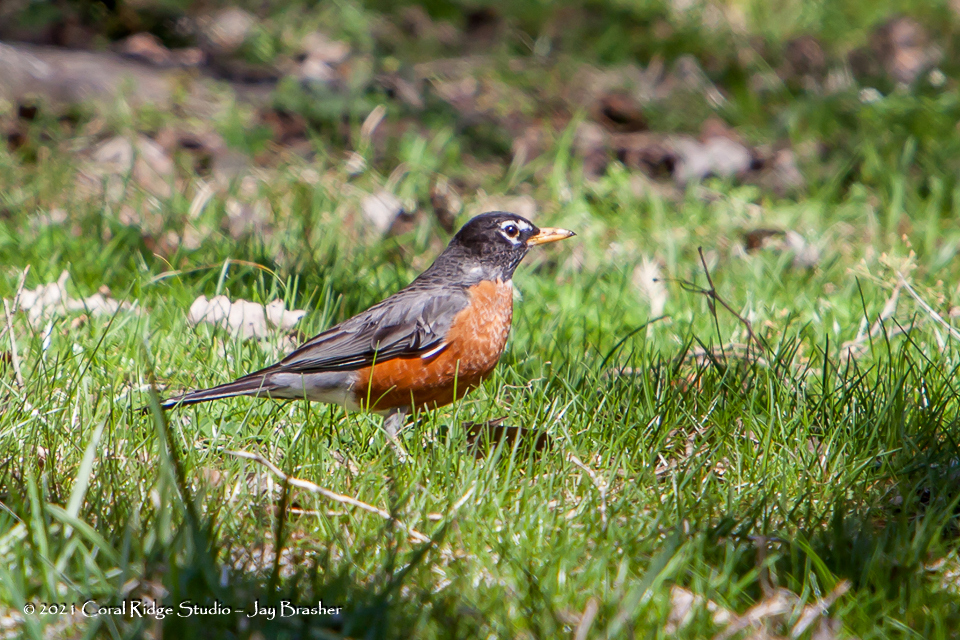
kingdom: Animalia
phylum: Chordata
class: Aves
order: Passeriformes
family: Turdidae
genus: Turdus
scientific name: Turdus migratorius
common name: American robin
